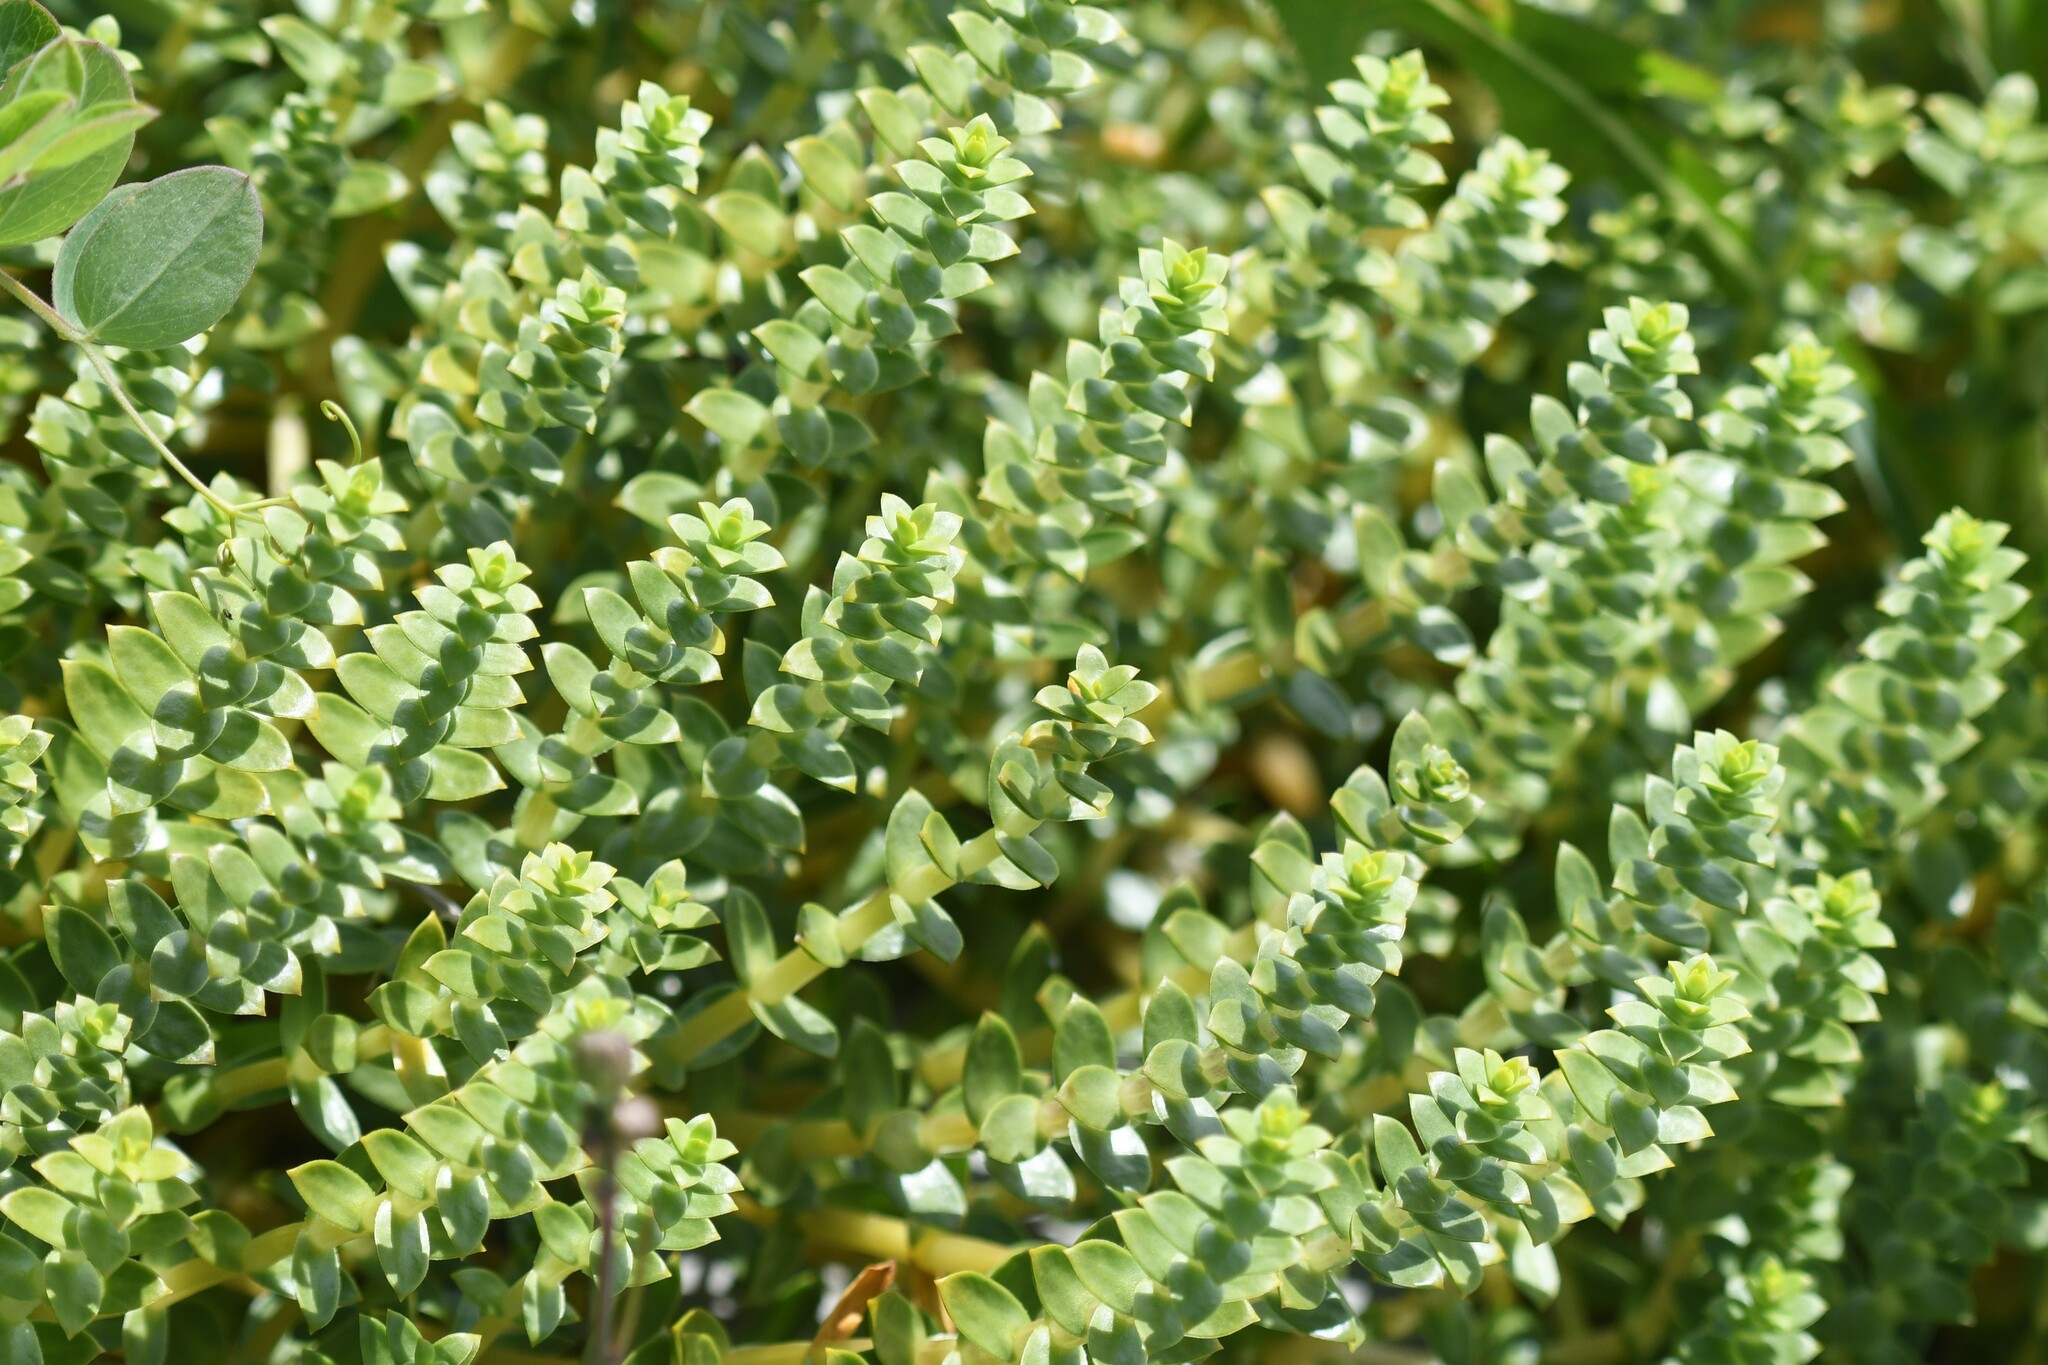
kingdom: Plantae
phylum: Tracheophyta
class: Magnoliopsida
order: Caryophyllales
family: Caryophyllaceae
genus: Honckenya
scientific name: Honckenya peploides
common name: Sea sandwort
